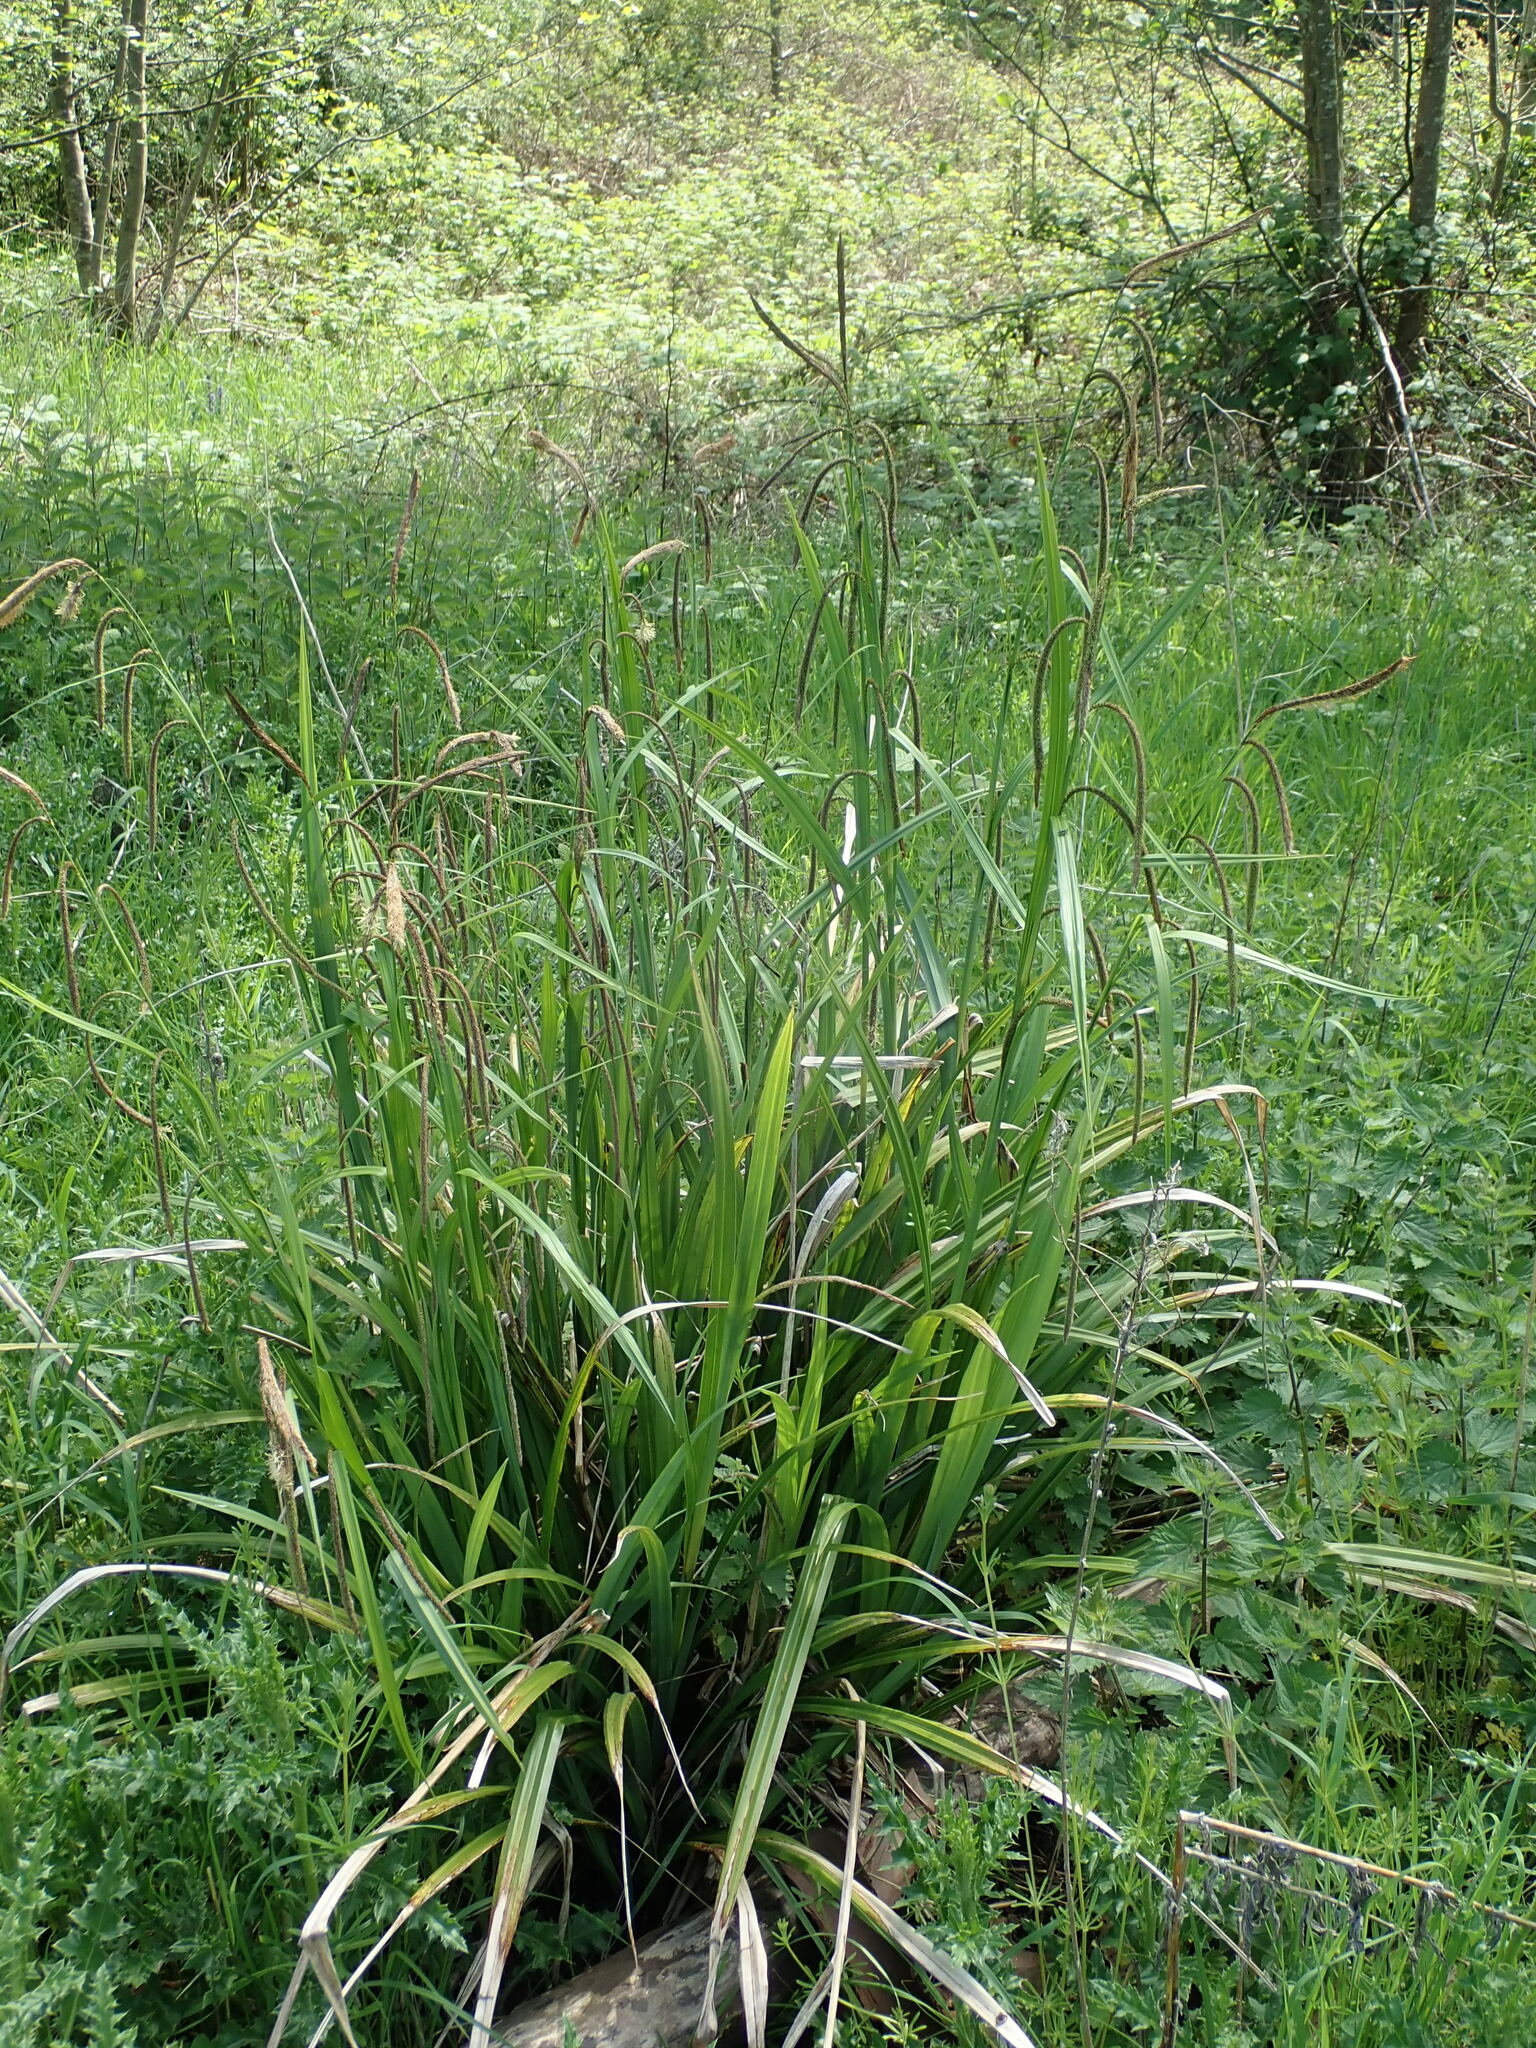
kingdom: Plantae
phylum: Tracheophyta
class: Liliopsida
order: Poales
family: Cyperaceae
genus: Carex
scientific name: Carex pendula
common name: Pendulous sedge
